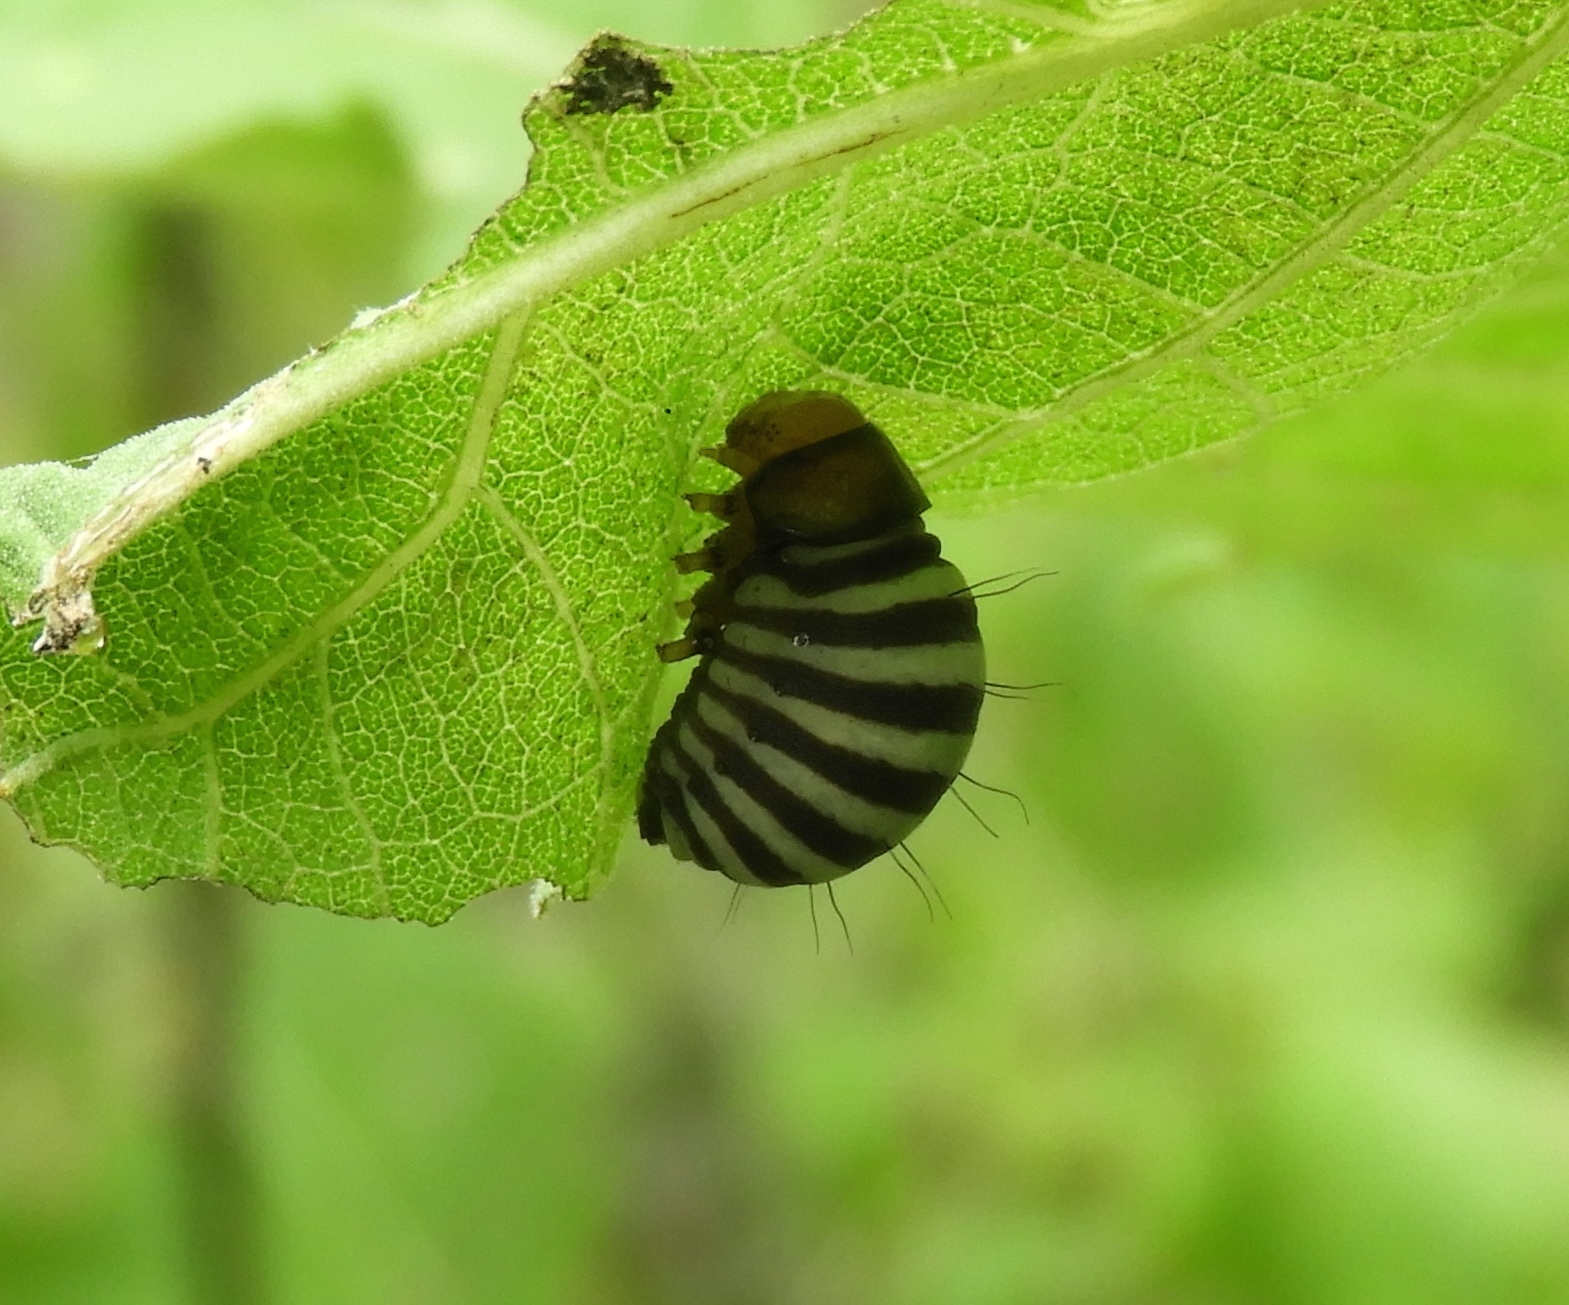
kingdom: Animalia
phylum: Arthropoda
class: Insecta
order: Coleoptera
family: Chrysomelidae
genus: Leptinotarsa
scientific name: Leptinotarsa behrensi
